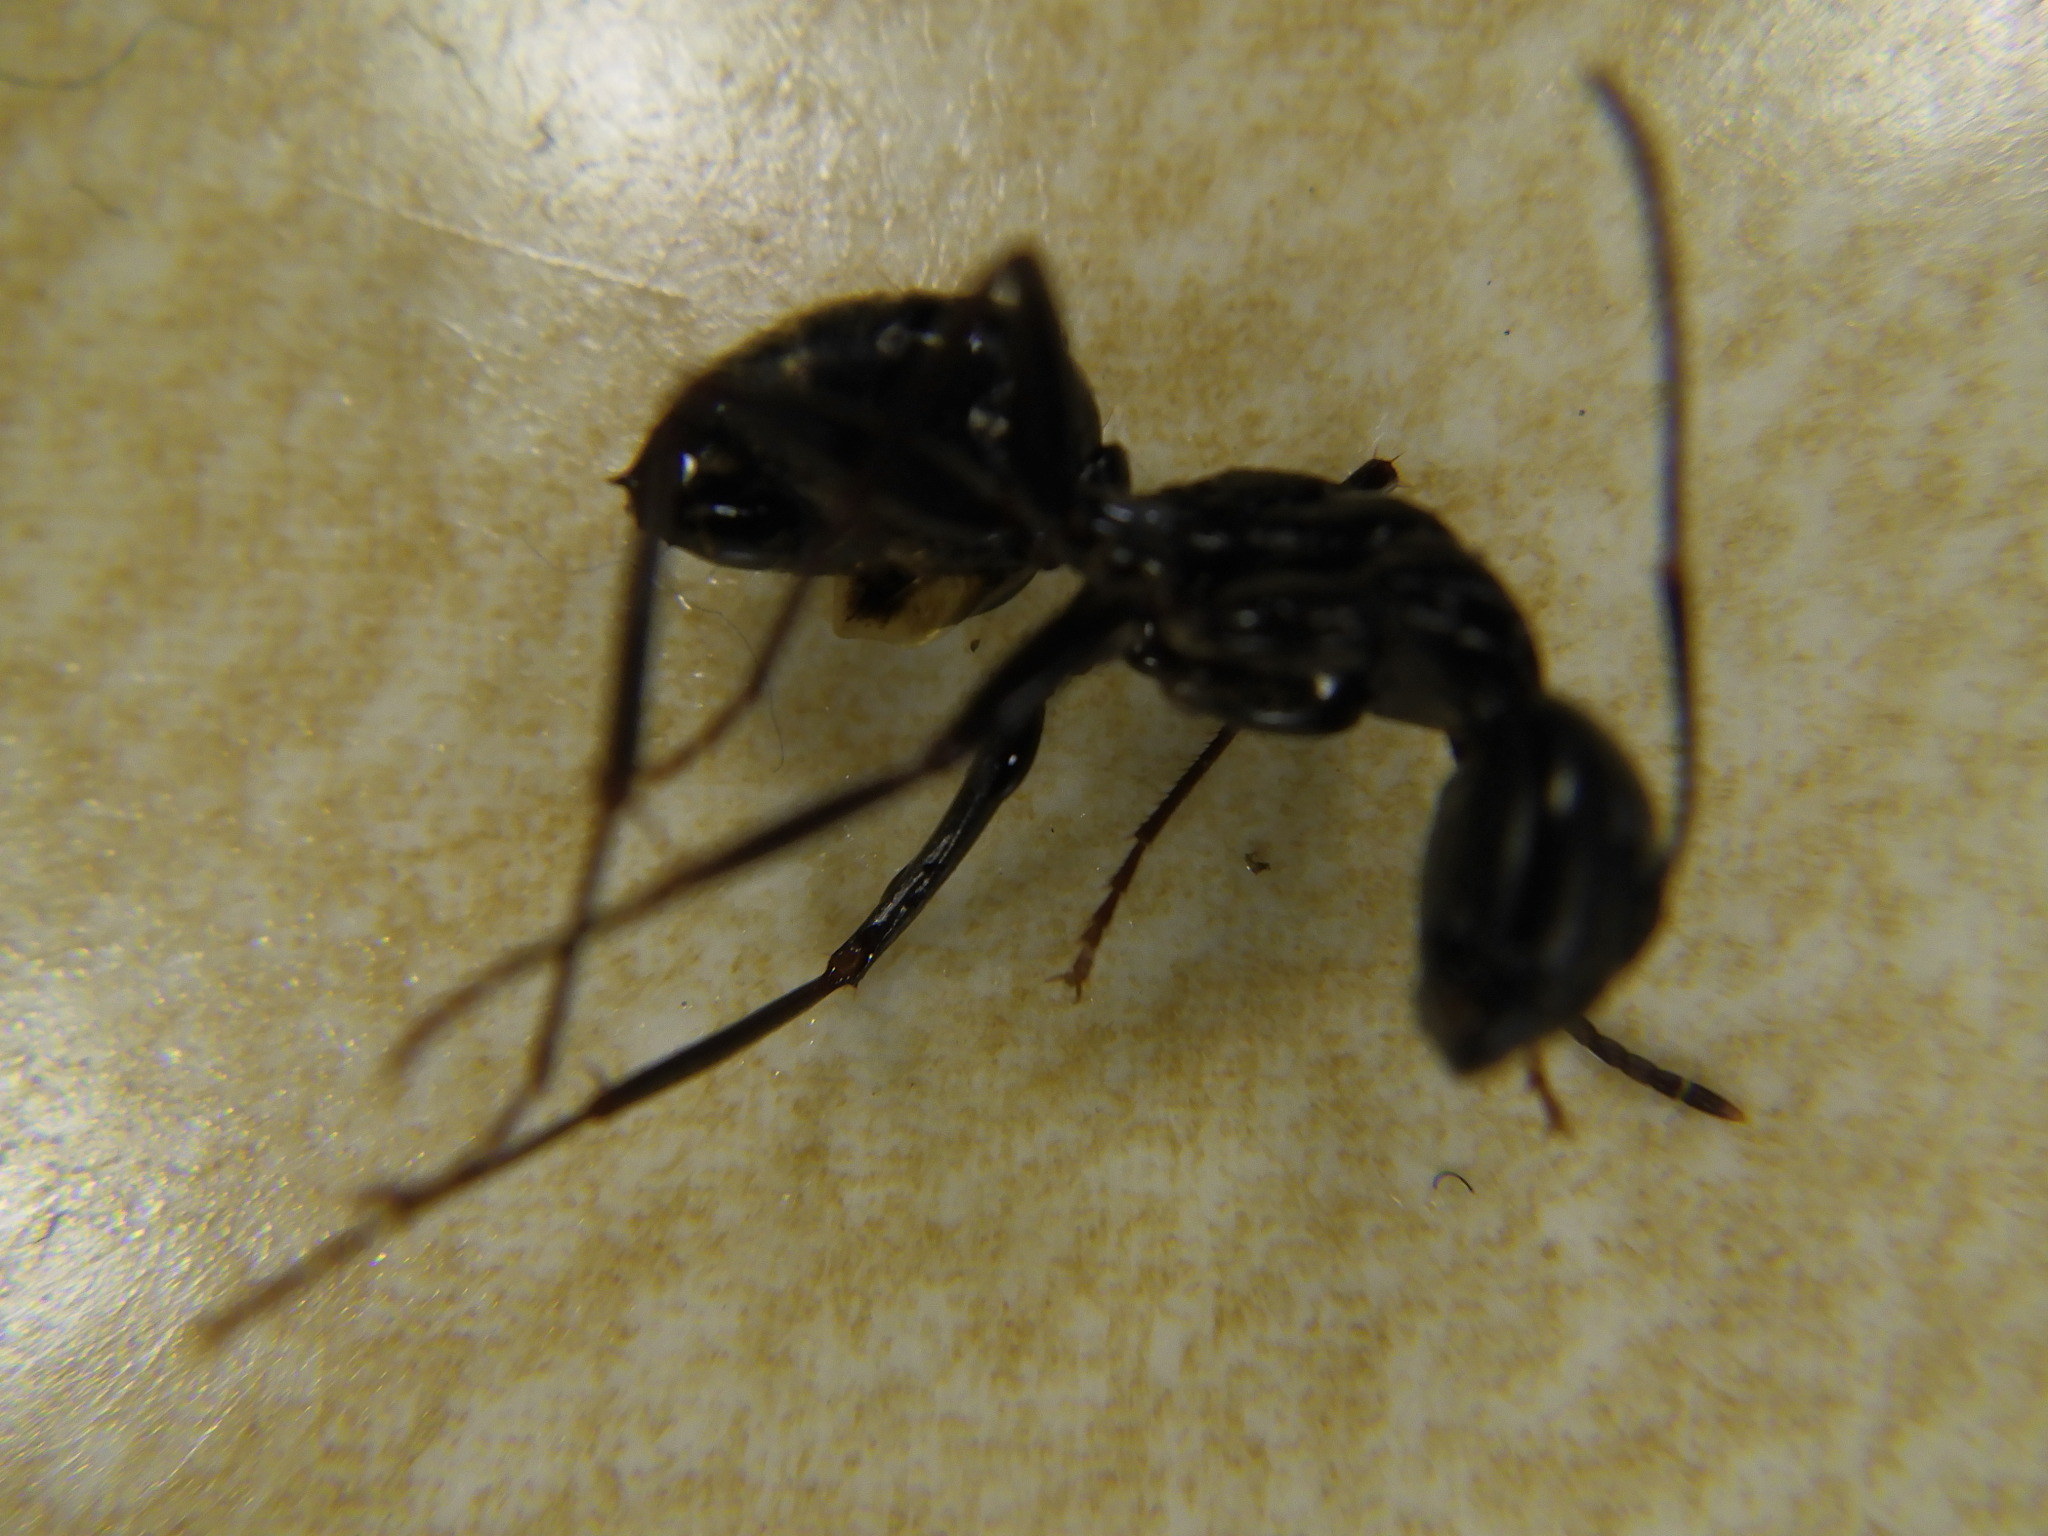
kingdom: Animalia
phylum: Arthropoda
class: Insecta
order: Hymenoptera
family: Formicidae
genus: Camponotus
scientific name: Camponotus pennsylvanicus
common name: Black carpenter ant
